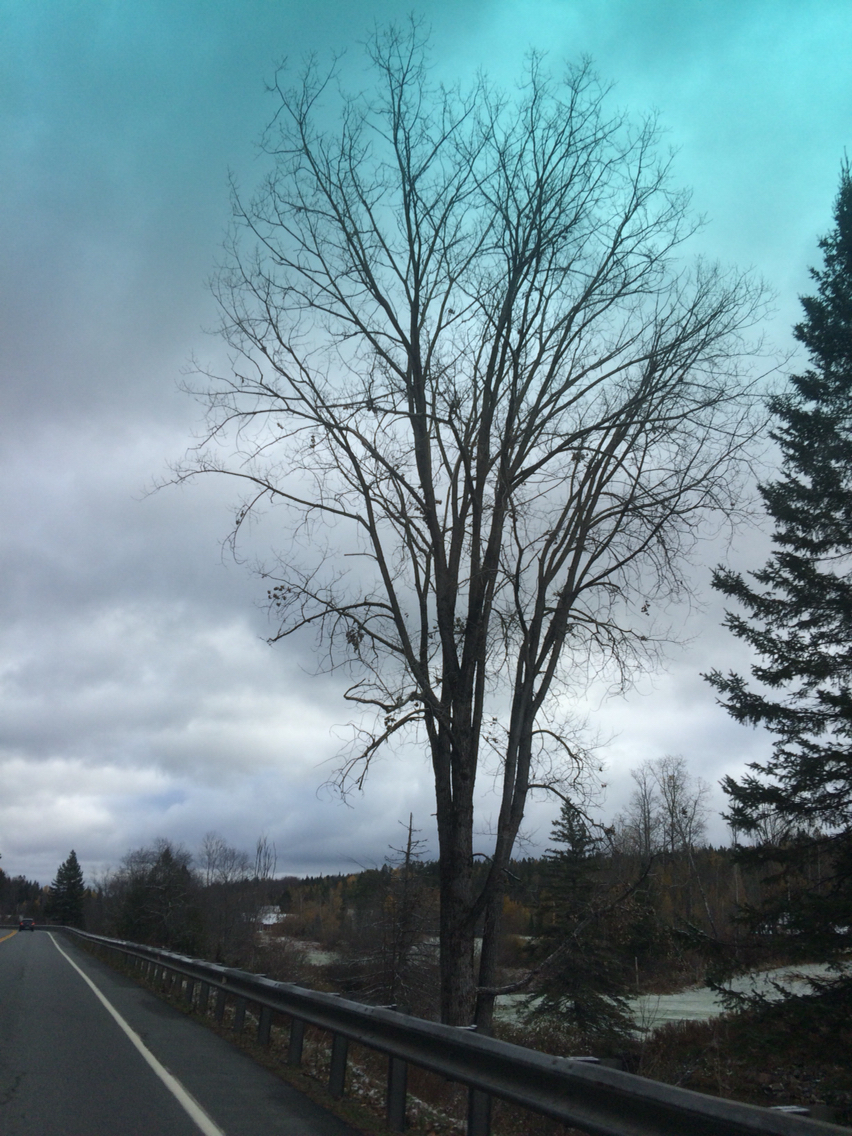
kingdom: Plantae
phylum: Tracheophyta
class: Magnoliopsida
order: Rosales
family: Ulmaceae
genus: Ulmus
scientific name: Ulmus americana
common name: American elm
